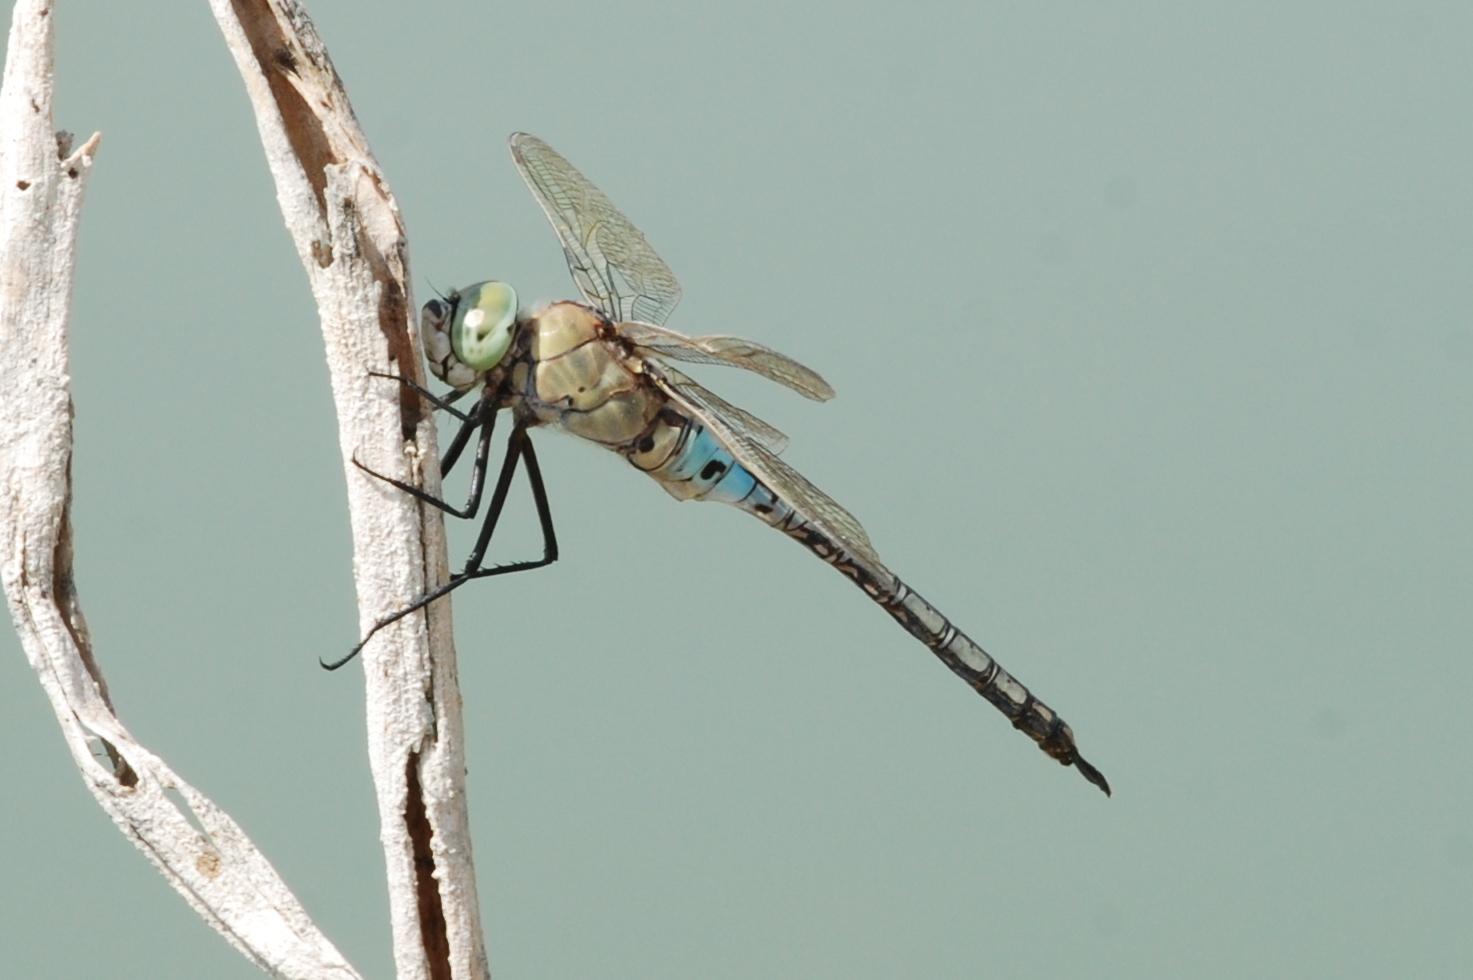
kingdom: Animalia
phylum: Arthropoda
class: Insecta
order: Odonata
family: Aeshnidae
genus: Anax
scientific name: Anax parthenope
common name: Lesser emperor
